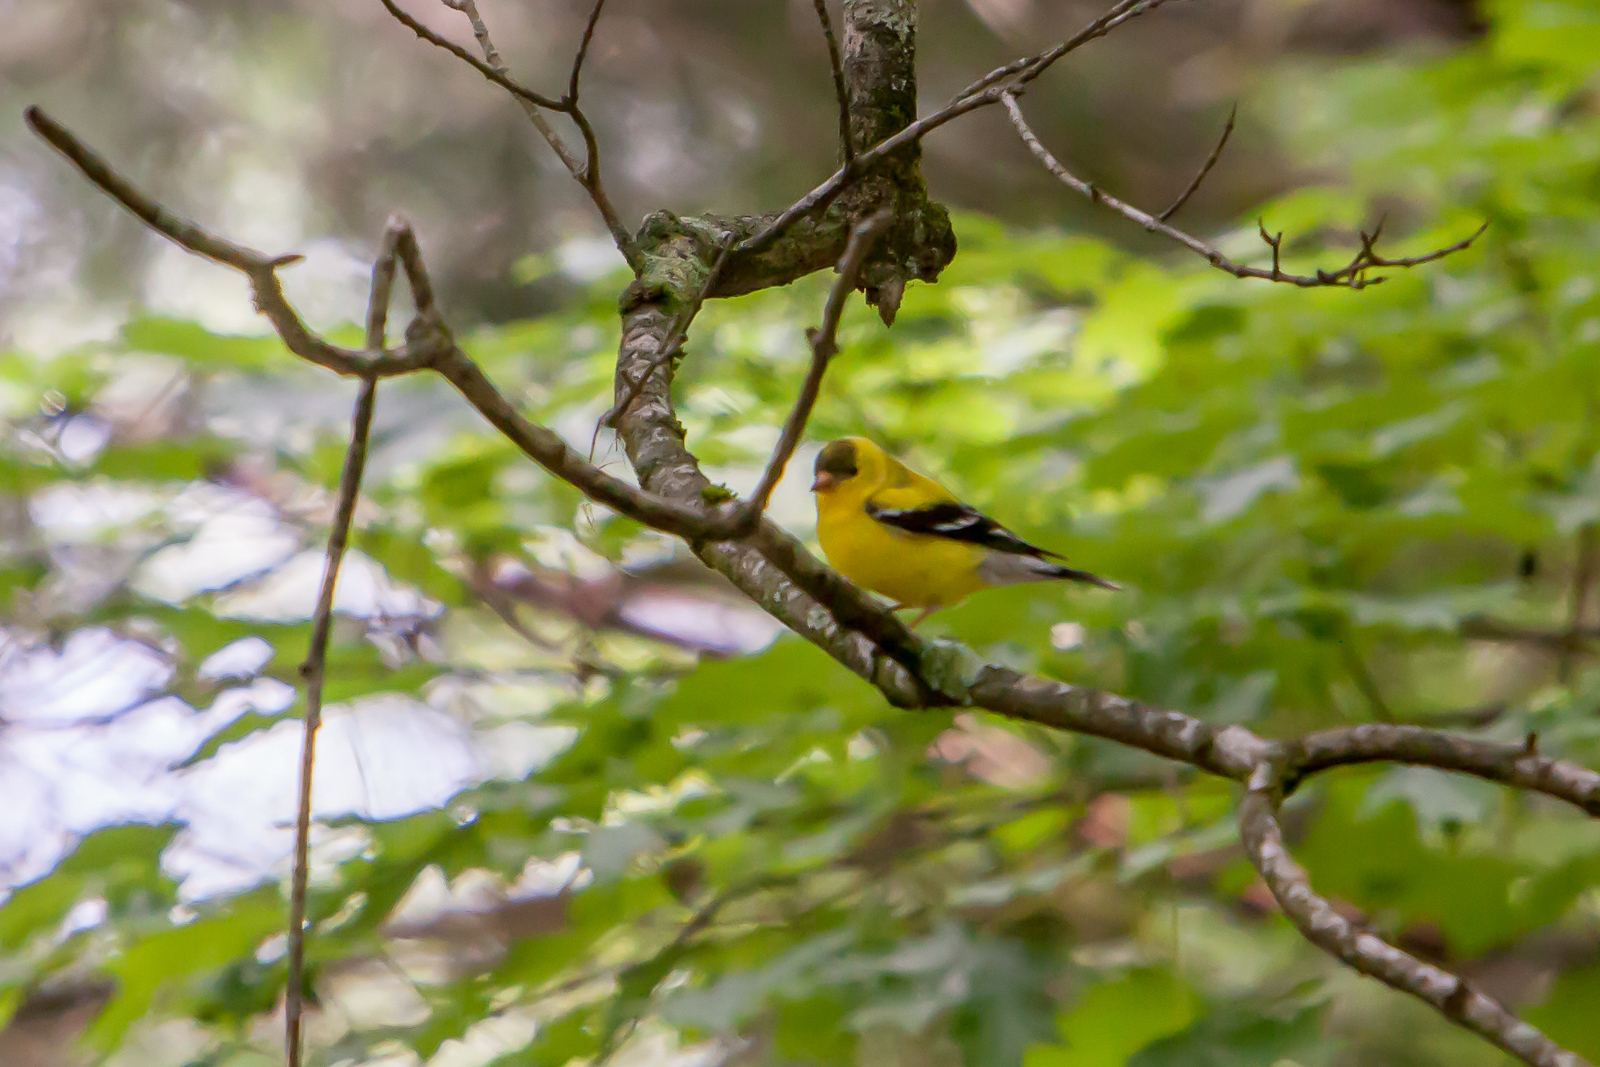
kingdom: Animalia
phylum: Chordata
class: Aves
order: Passeriformes
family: Fringillidae
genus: Spinus
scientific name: Spinus tristis
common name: American goldfinch
